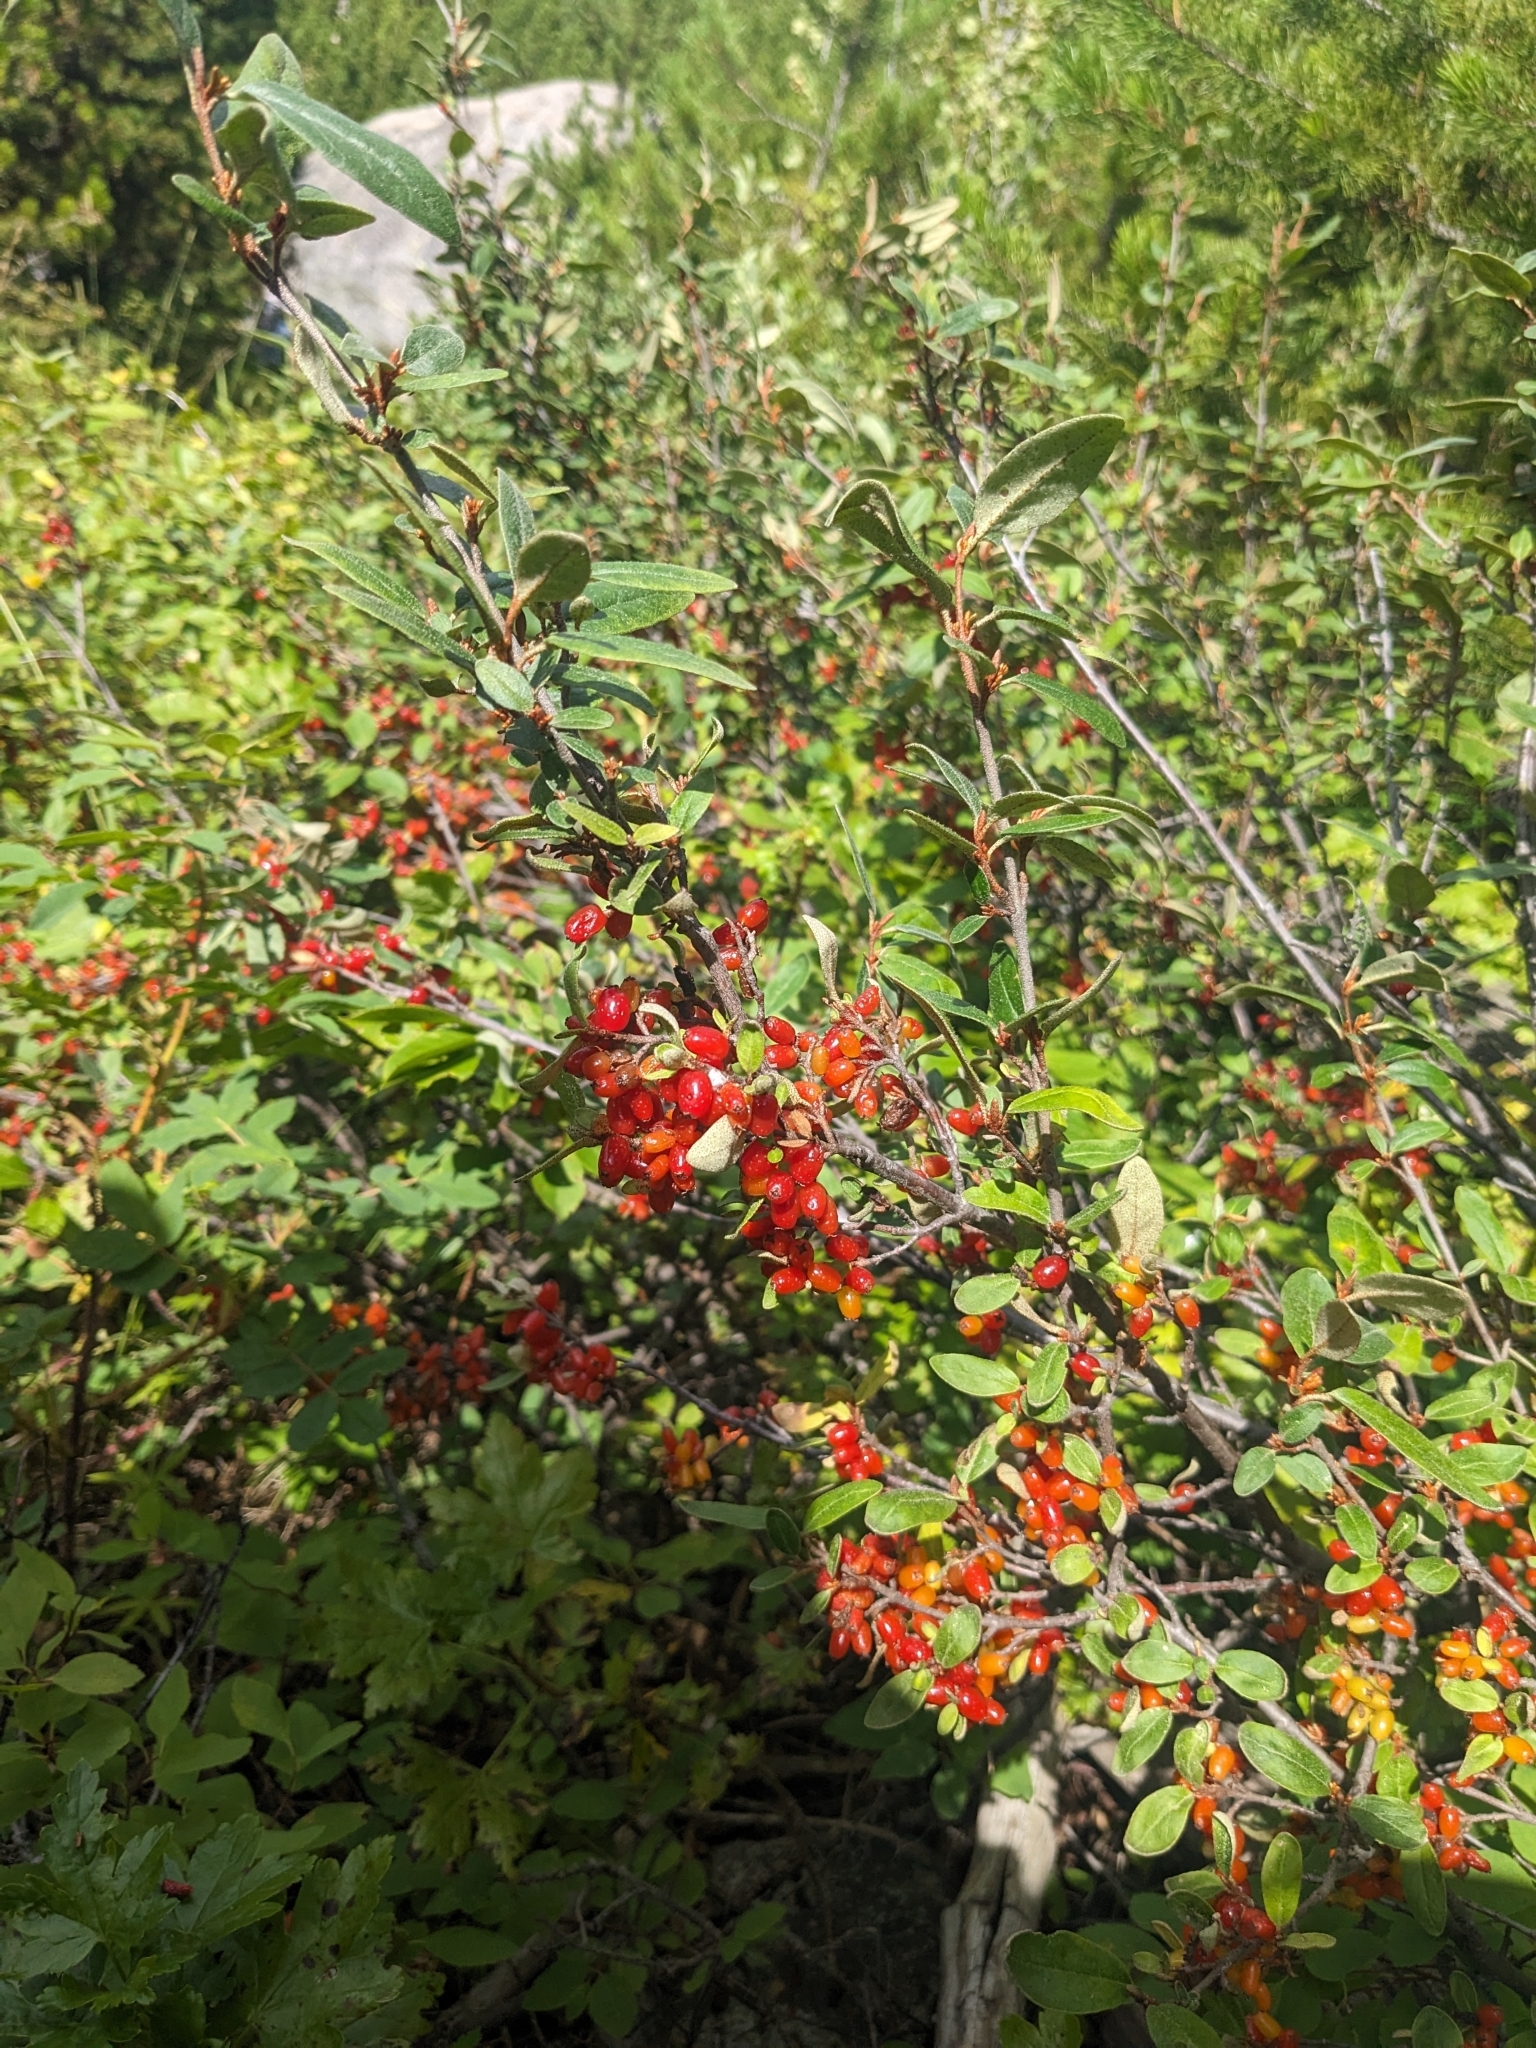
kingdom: Plantae
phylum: Tracheophyta
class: Magnoliopsida
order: Rosales
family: Elaeagnaceae
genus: Shepherdia
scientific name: Shepherdia canadensis
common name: Soapberry
